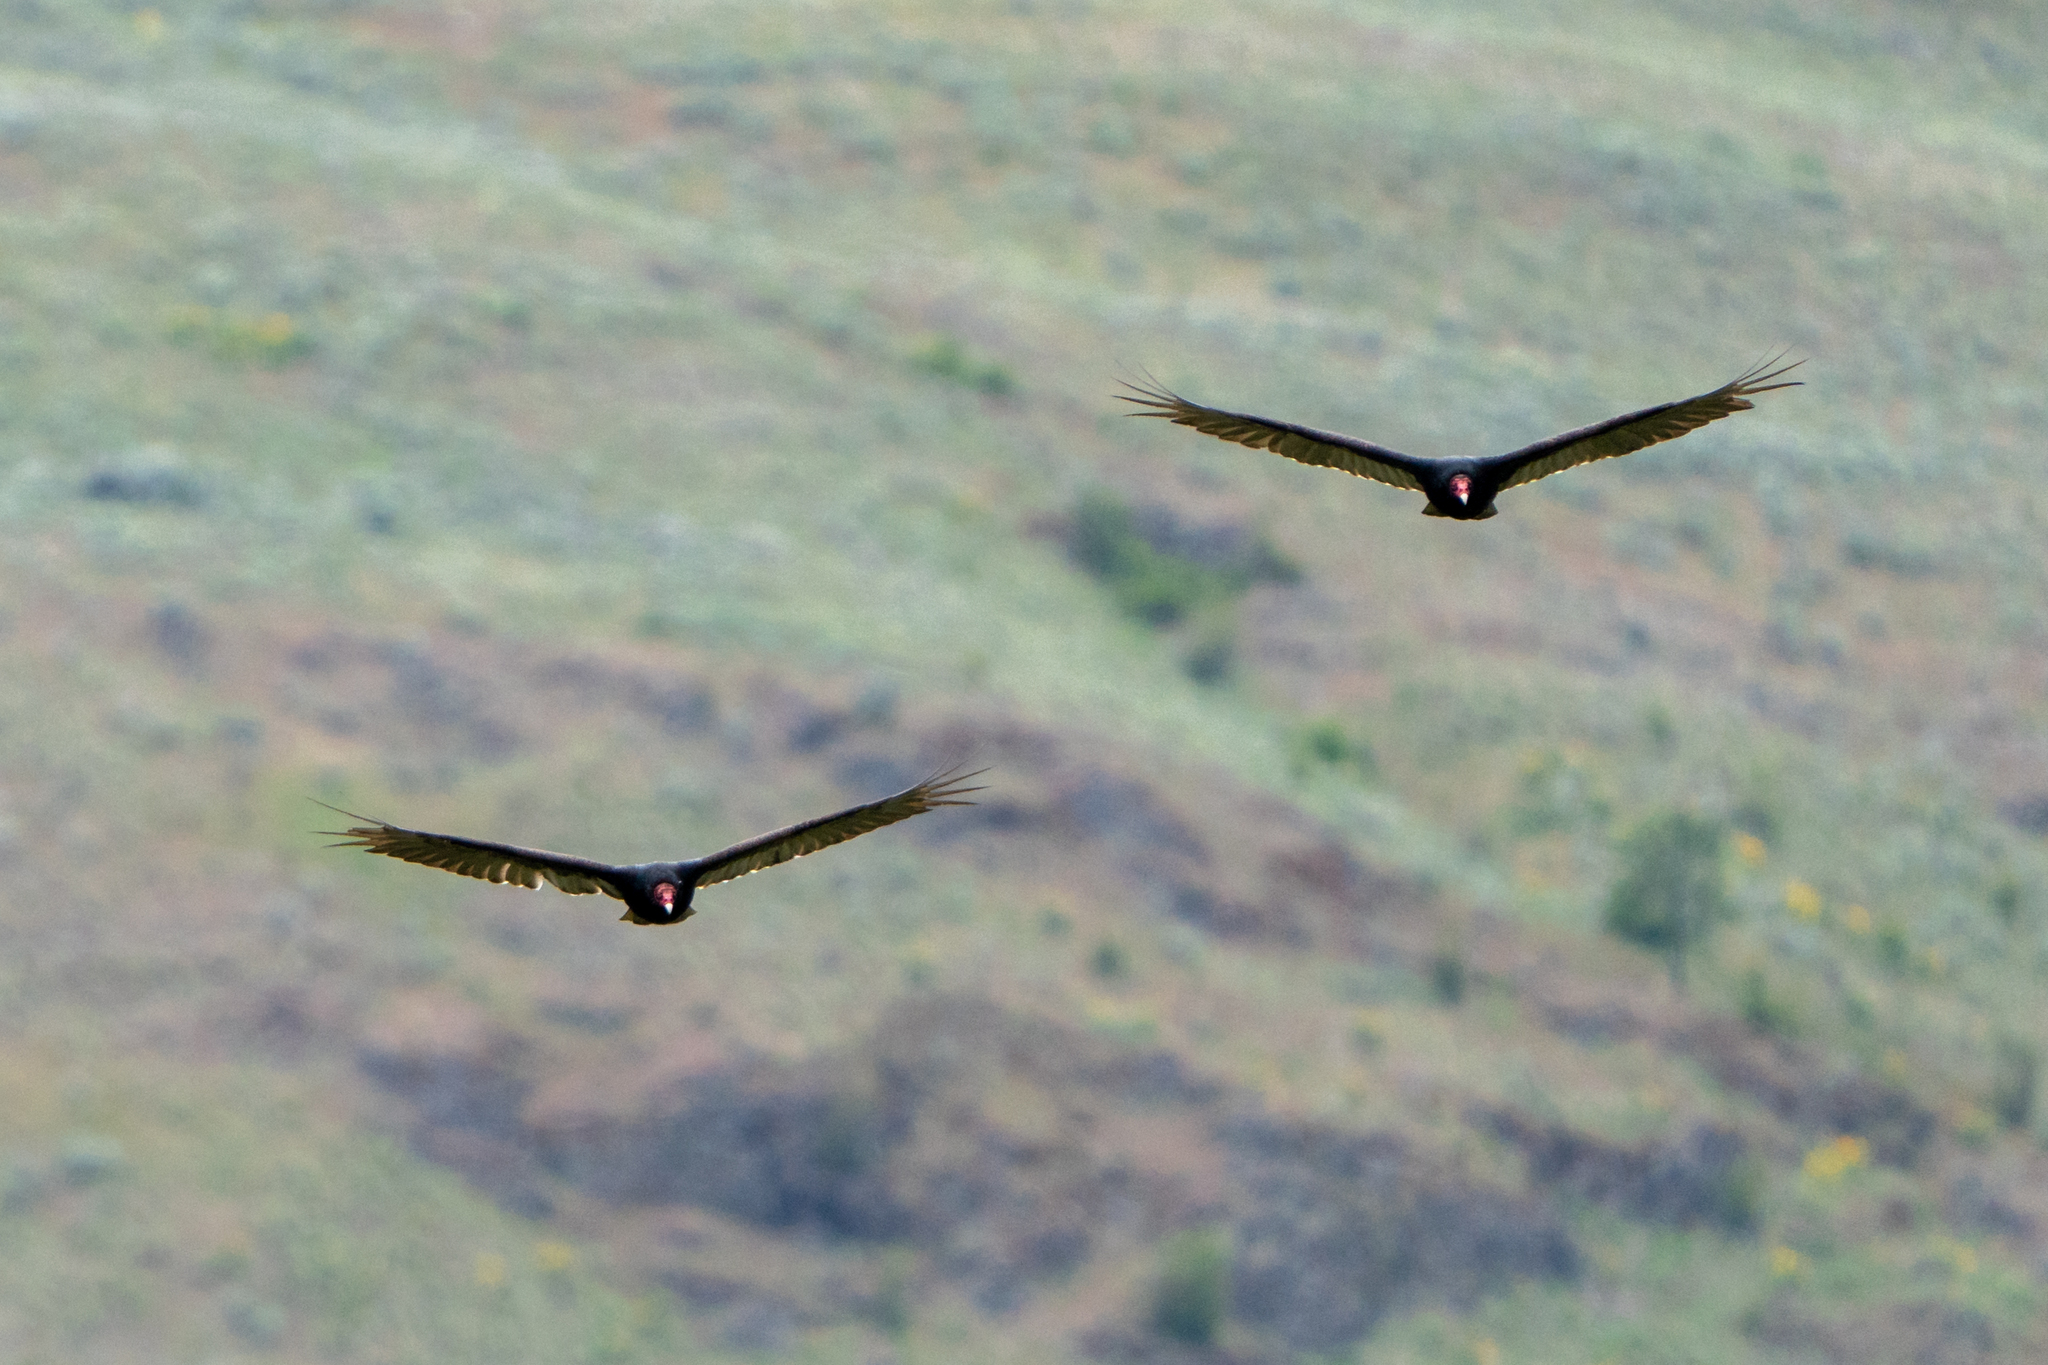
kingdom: Animalia
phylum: Chordata
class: Aves
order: Accipitriformes
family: Cathartidae
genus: Cathartes
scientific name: Cathartes aura
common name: Turkey vulture
